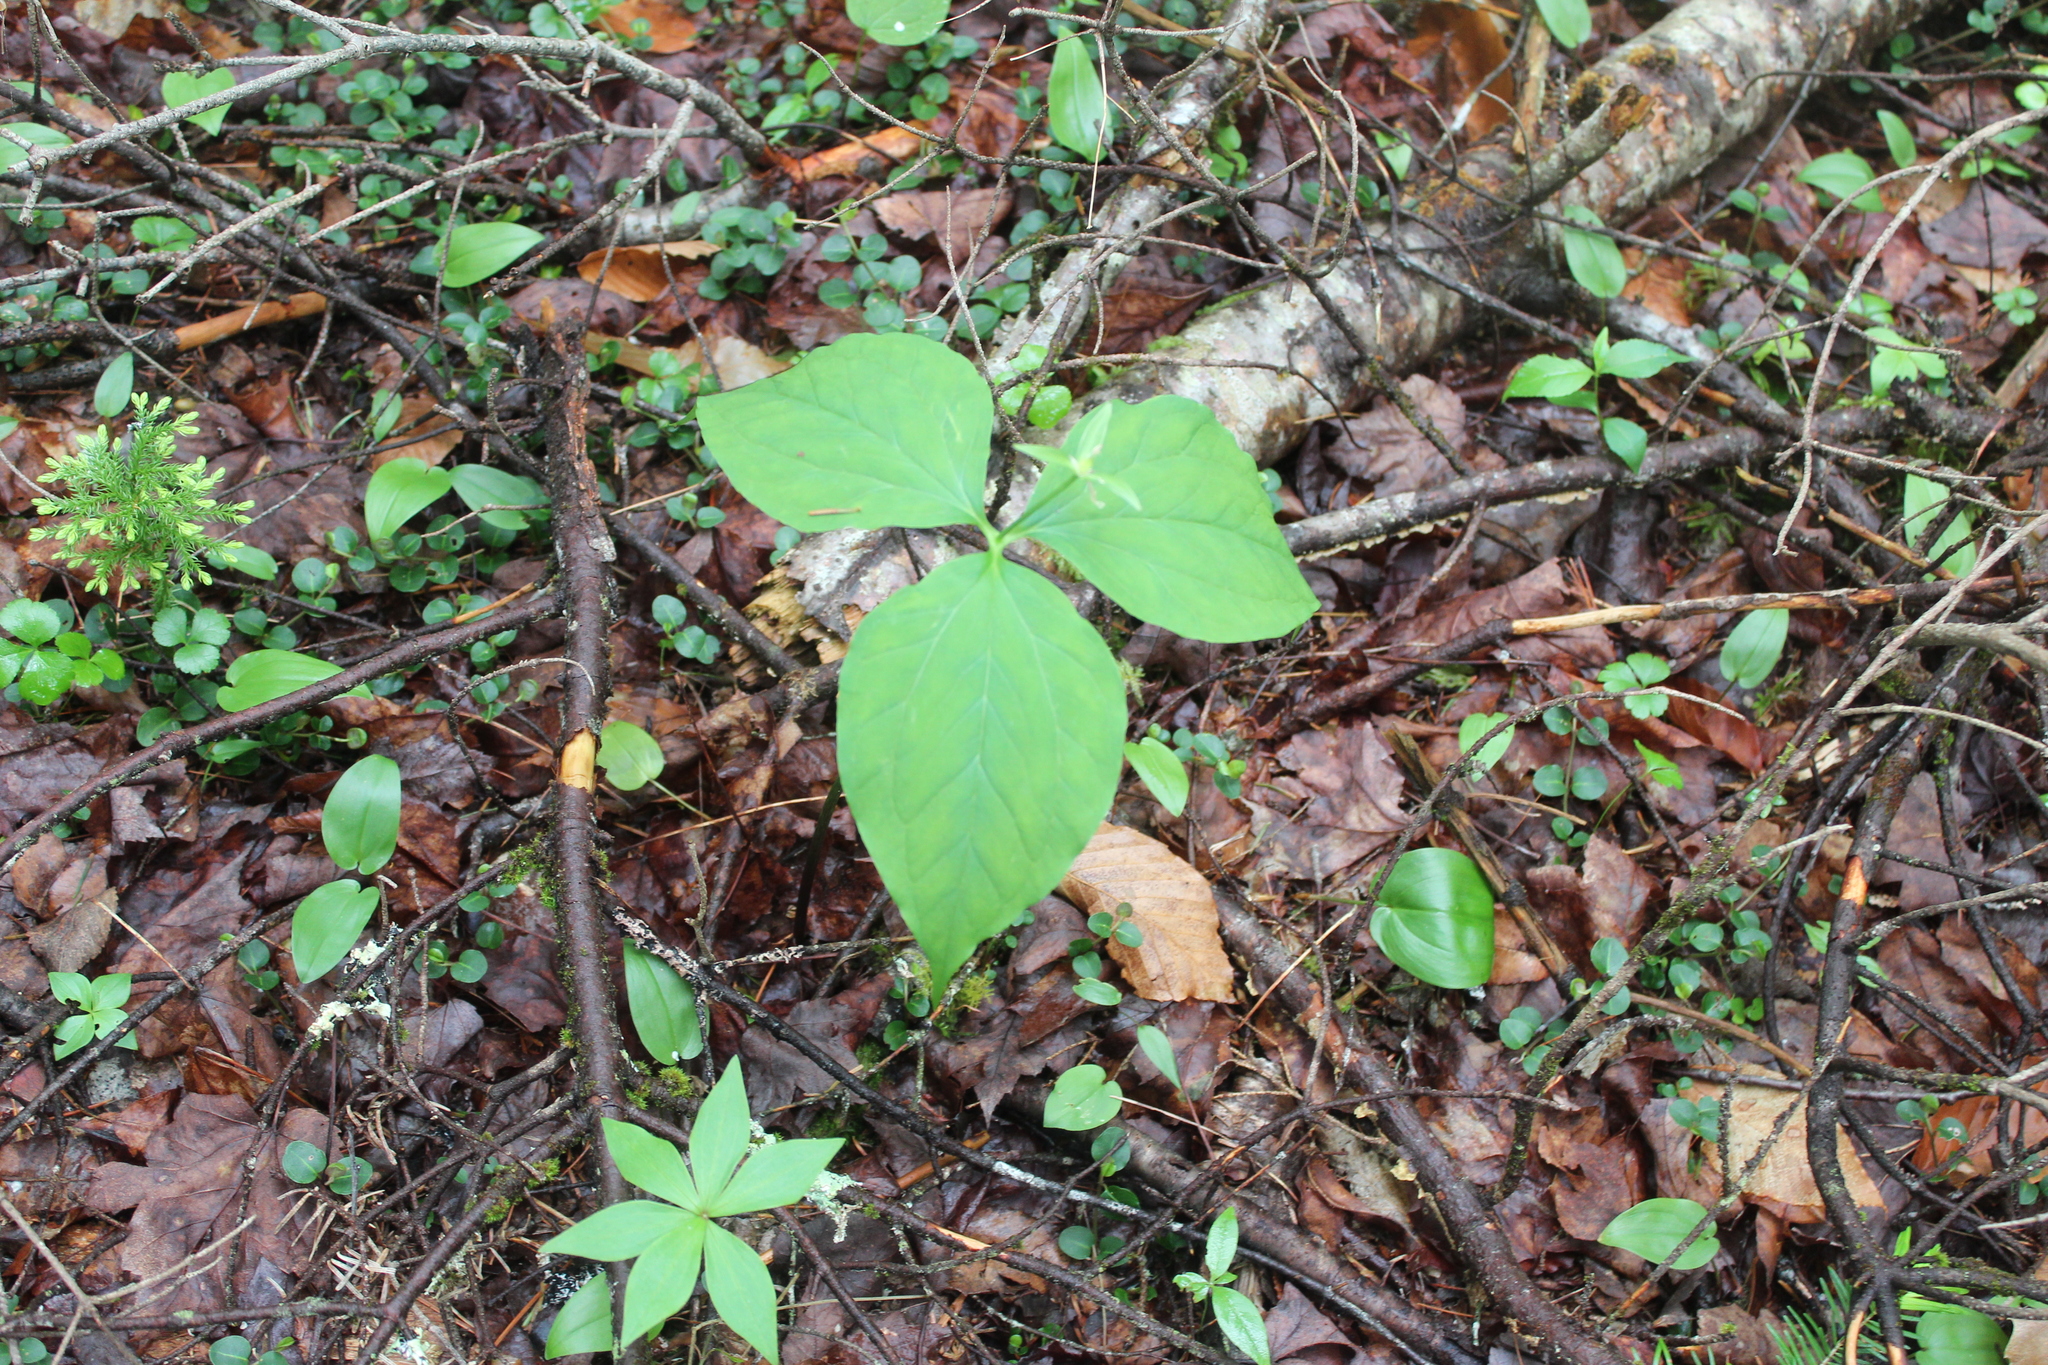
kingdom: Plantae
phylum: Tracheophyta
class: Liliopsida
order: Liliales
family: Melanthiaceae
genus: Trillium
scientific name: Trillium undulatum
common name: Paint trillium
